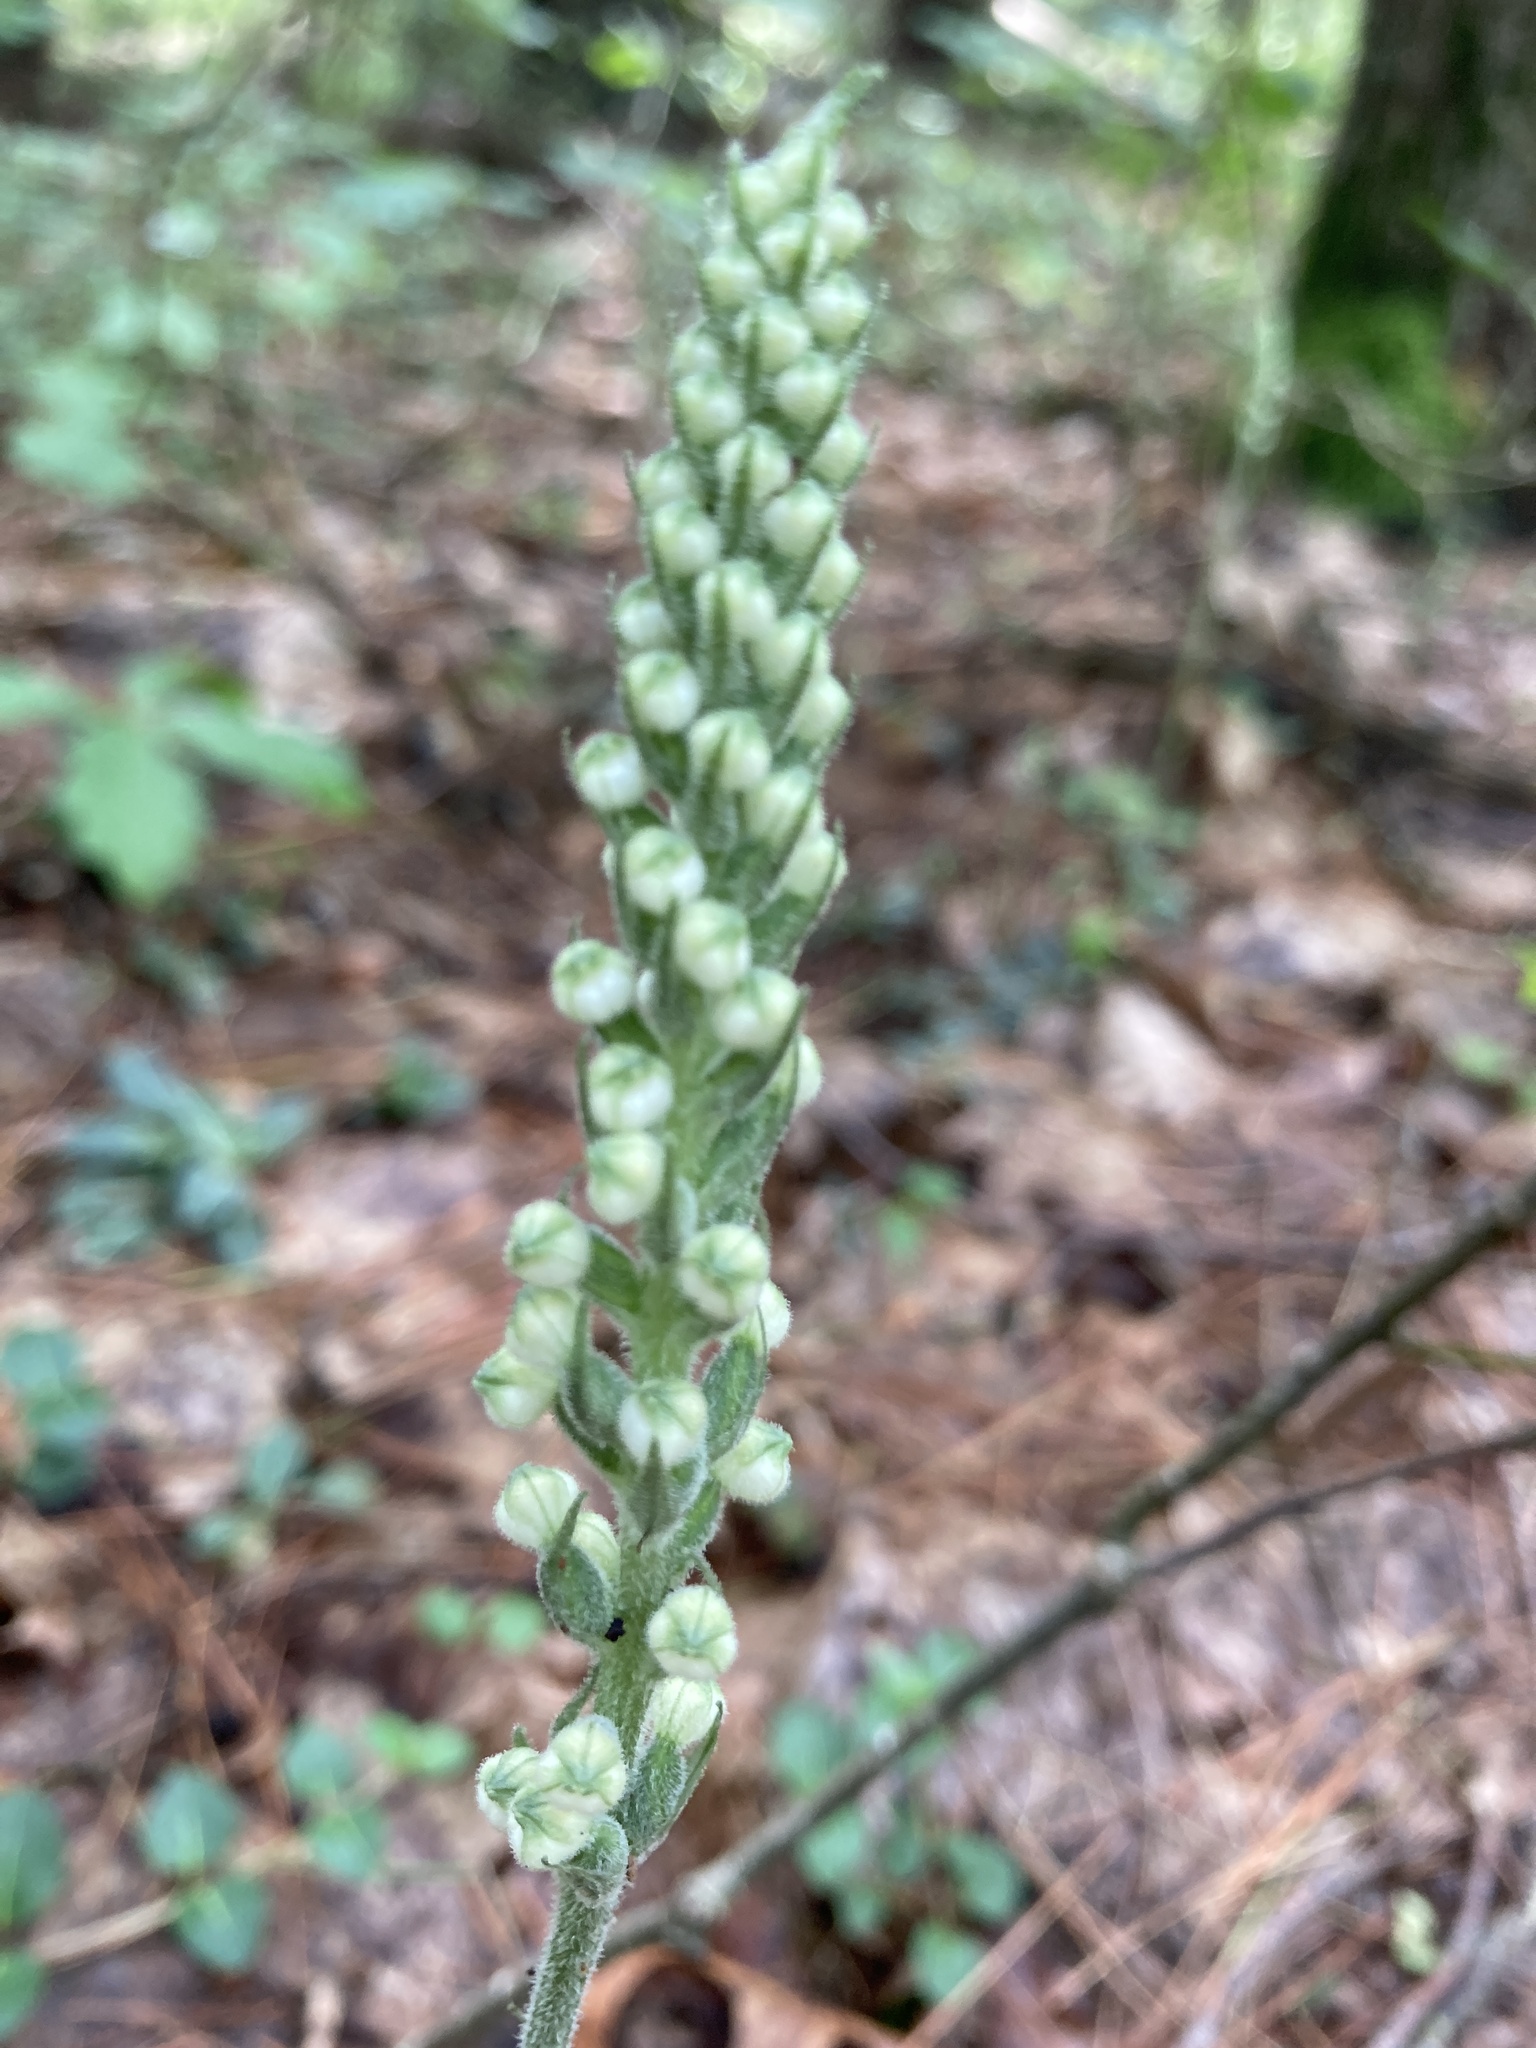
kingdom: Plantae
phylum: Tracheophyta
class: Liliopsida
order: Asparagales
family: Orchidaceae
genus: Goodyera
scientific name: Goodyera pubescens
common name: Downy rattlesnake-plantain
